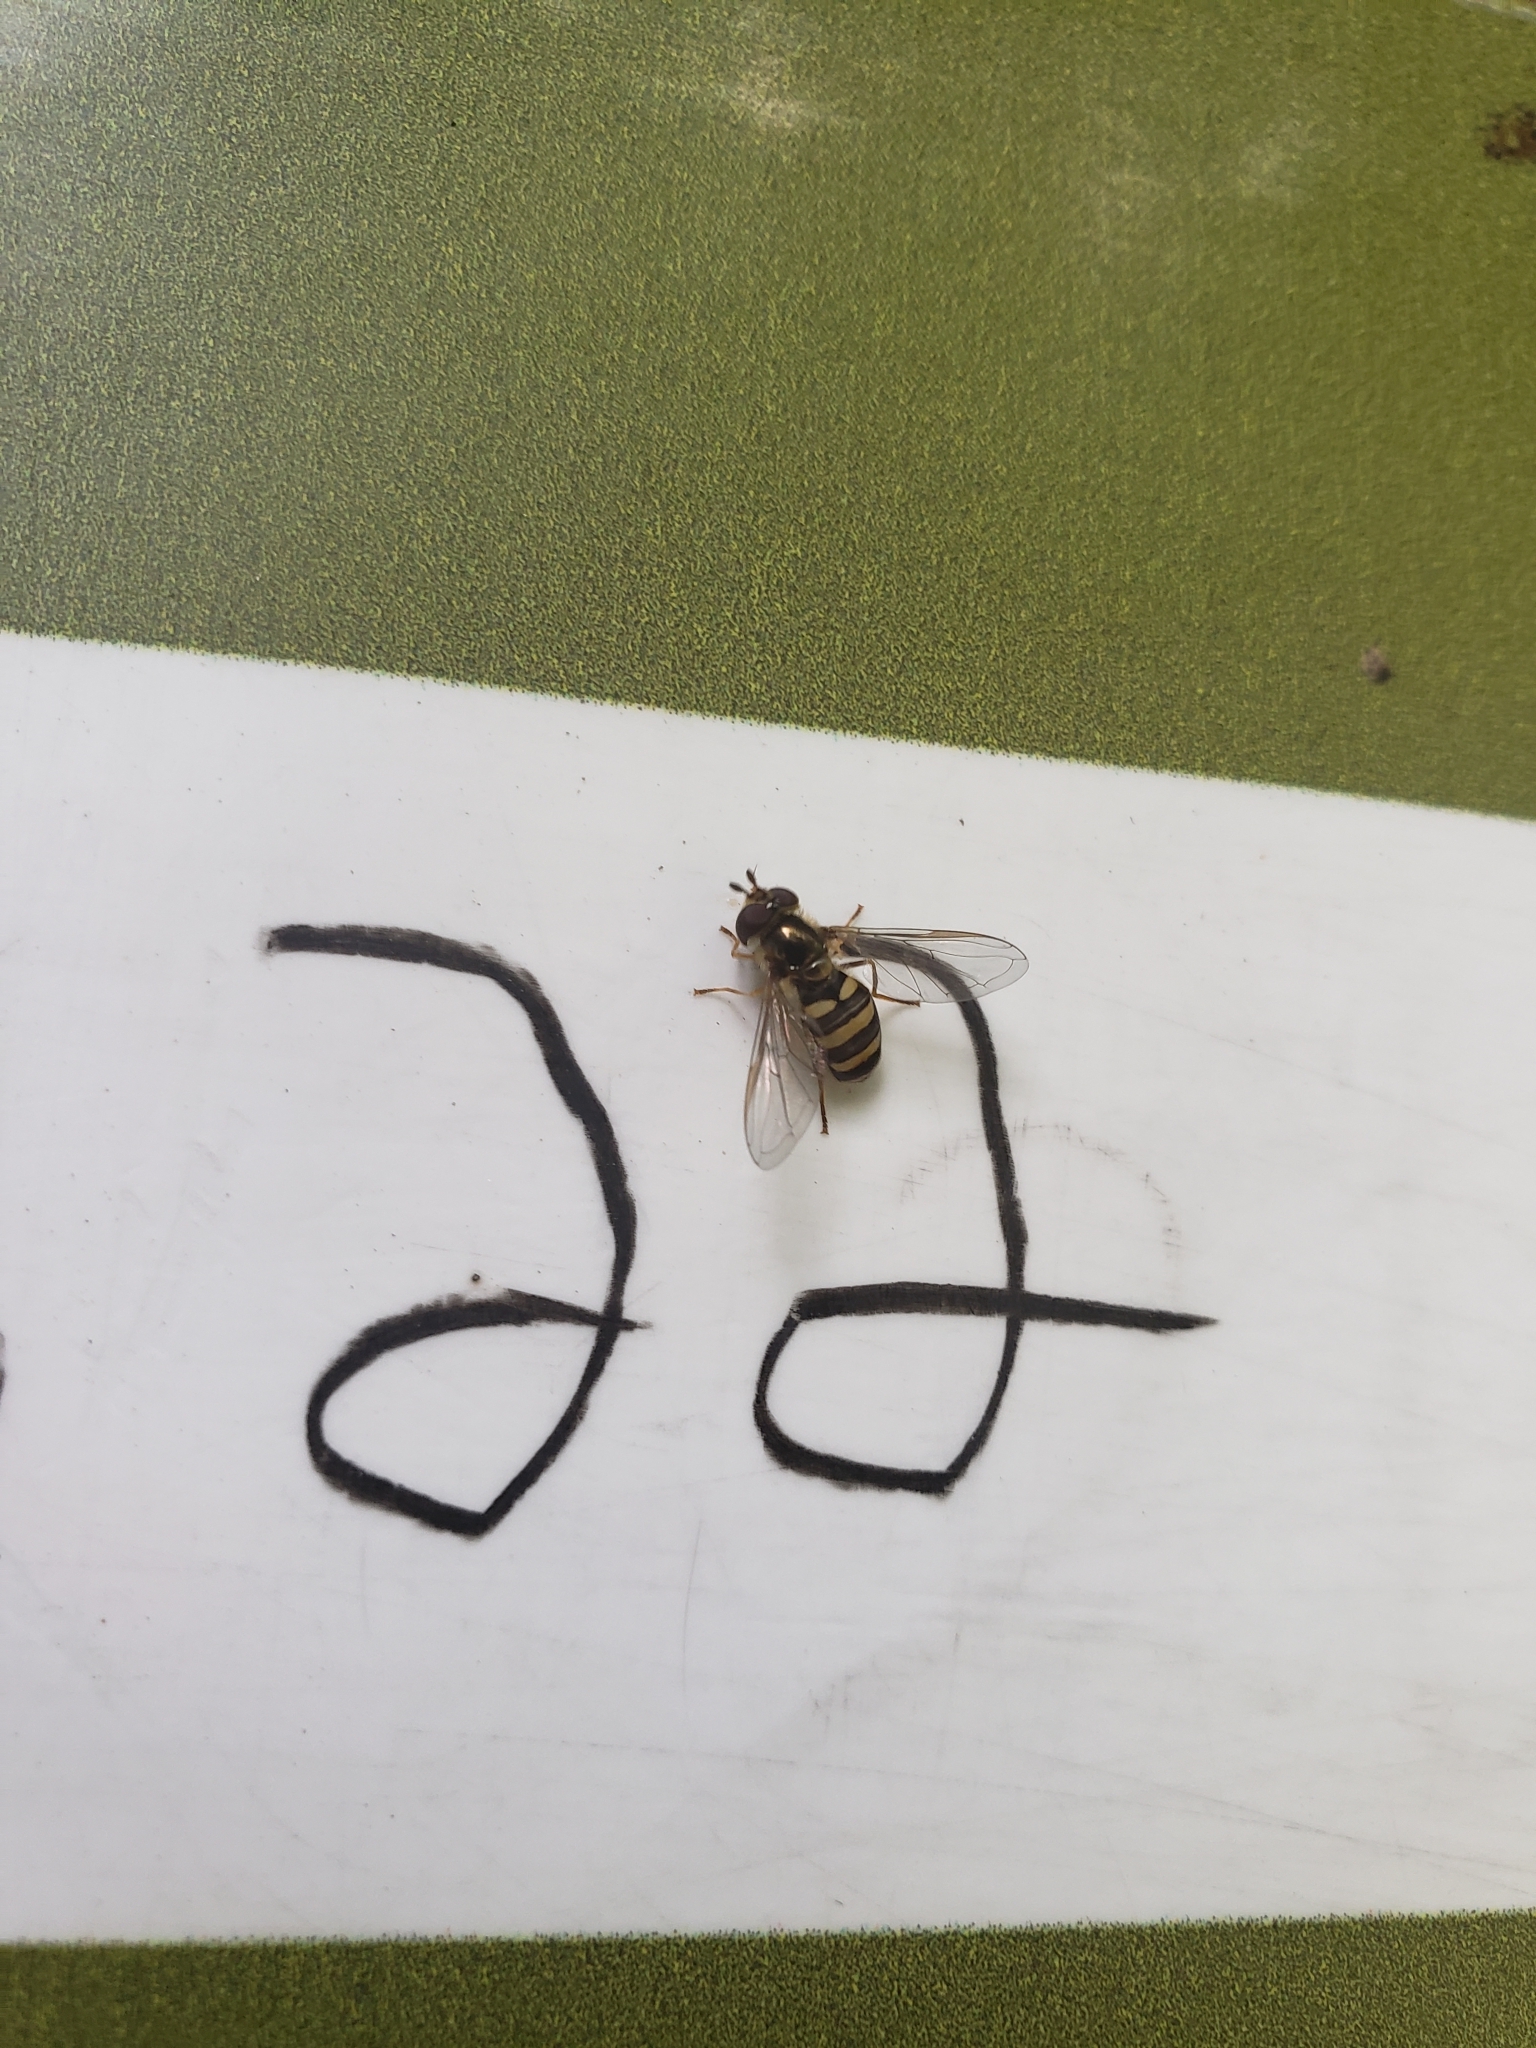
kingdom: Animalia
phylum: Arthropoda
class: Insecta
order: Diptera
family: Syrphidae
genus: Eupeodes
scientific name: Eupeodes
